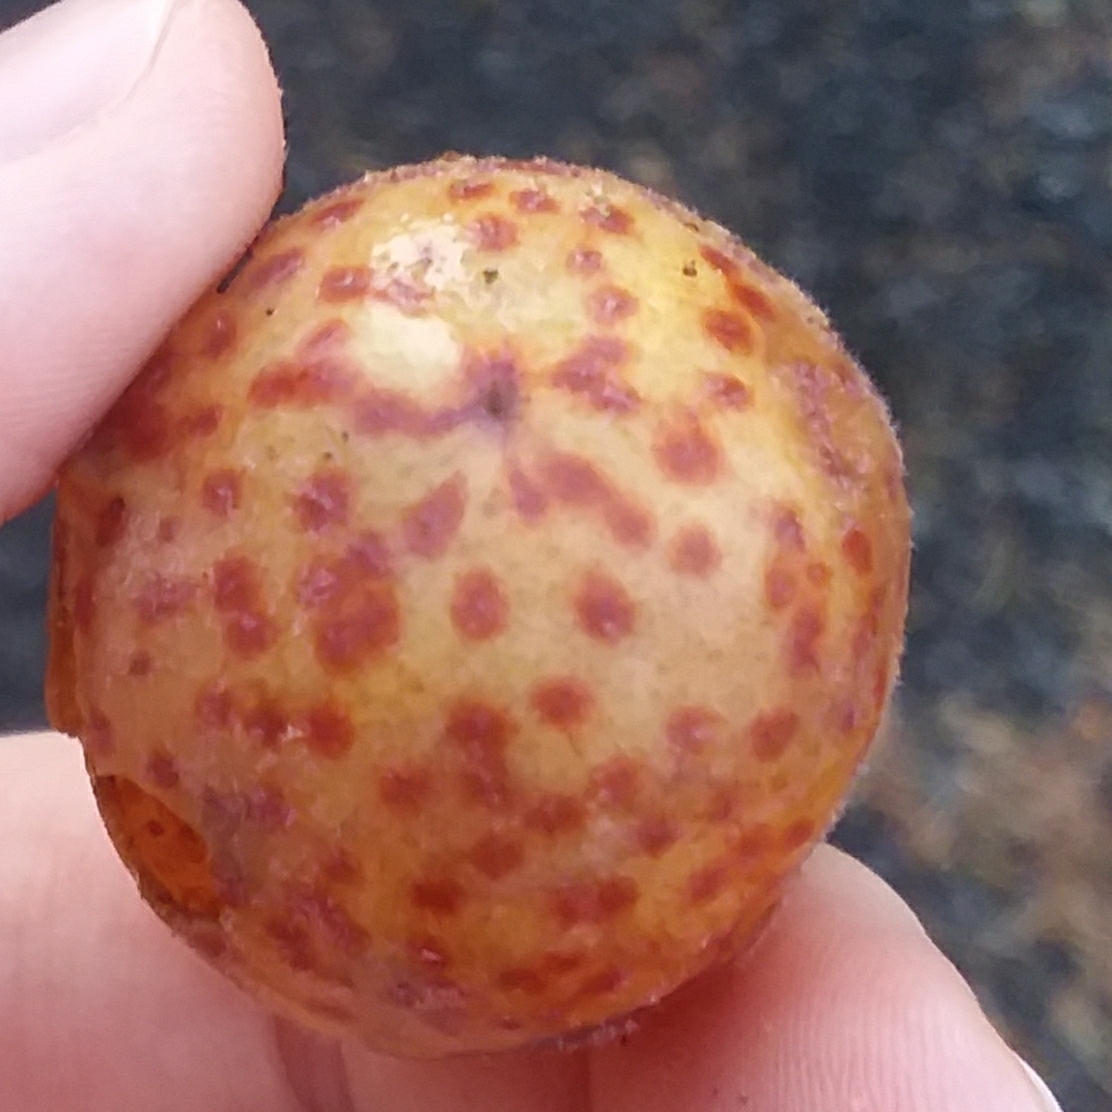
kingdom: Animalia
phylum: Arthropoda
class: Insecta
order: Hymenoptera
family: Cynipidae
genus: Cynips
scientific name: Cynips
